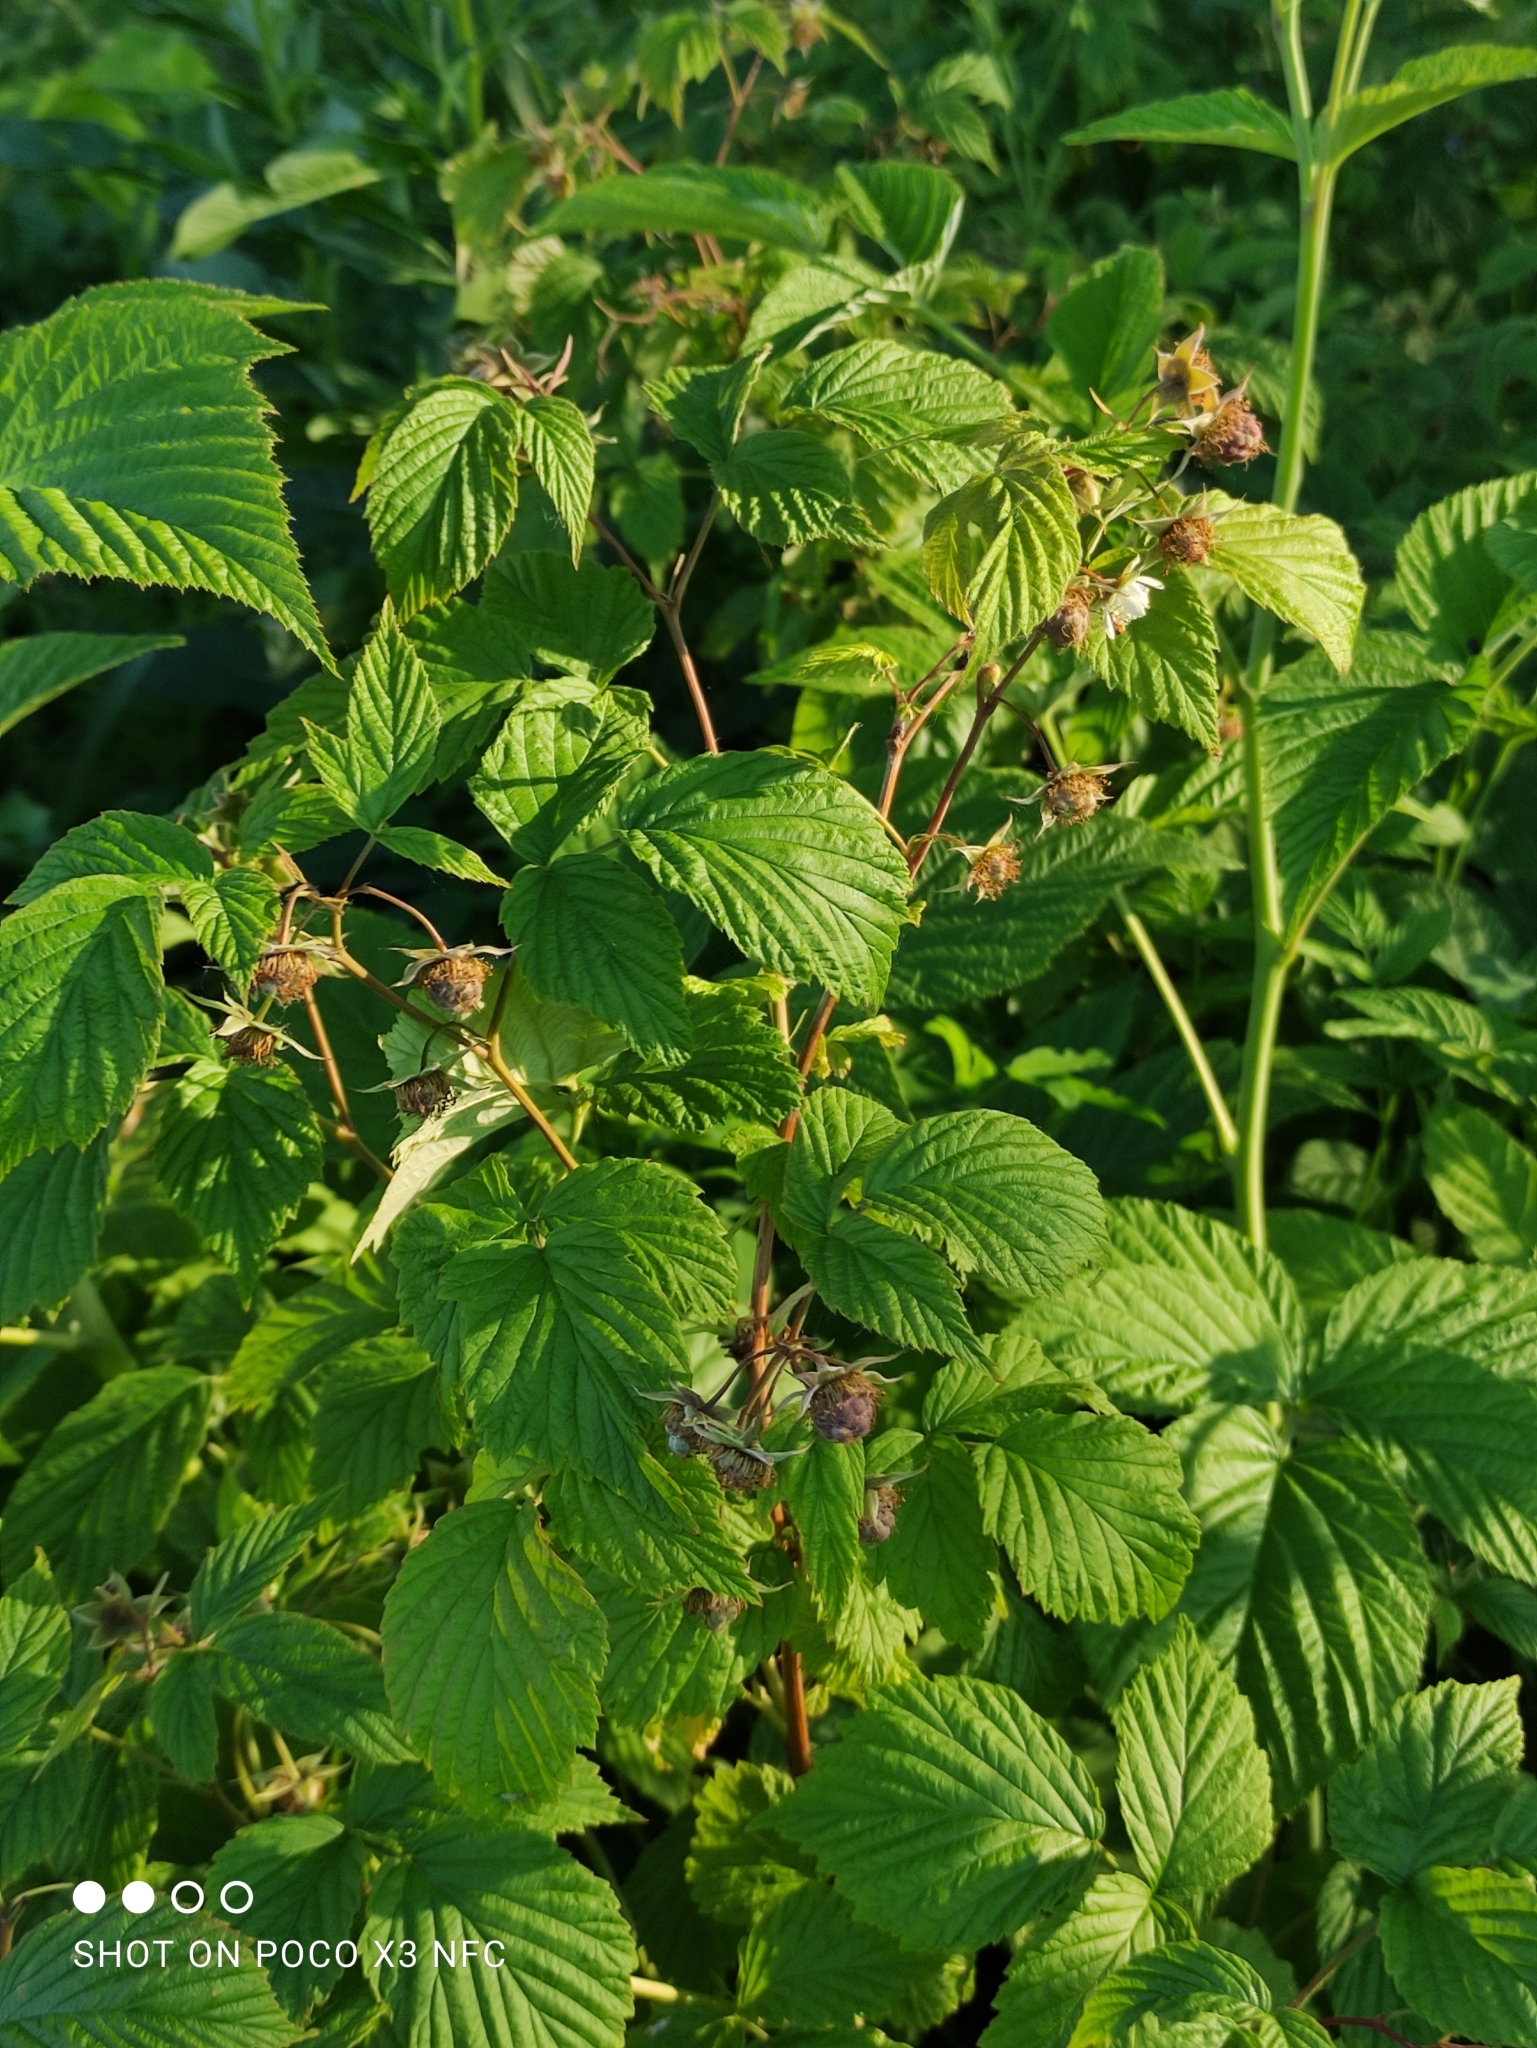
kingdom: Plantae
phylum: Tracheophyta
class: Magnoliopsida
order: Rosales
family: Rosaceae
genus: Rubus
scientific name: Rubus idaeus
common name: Raspberry
